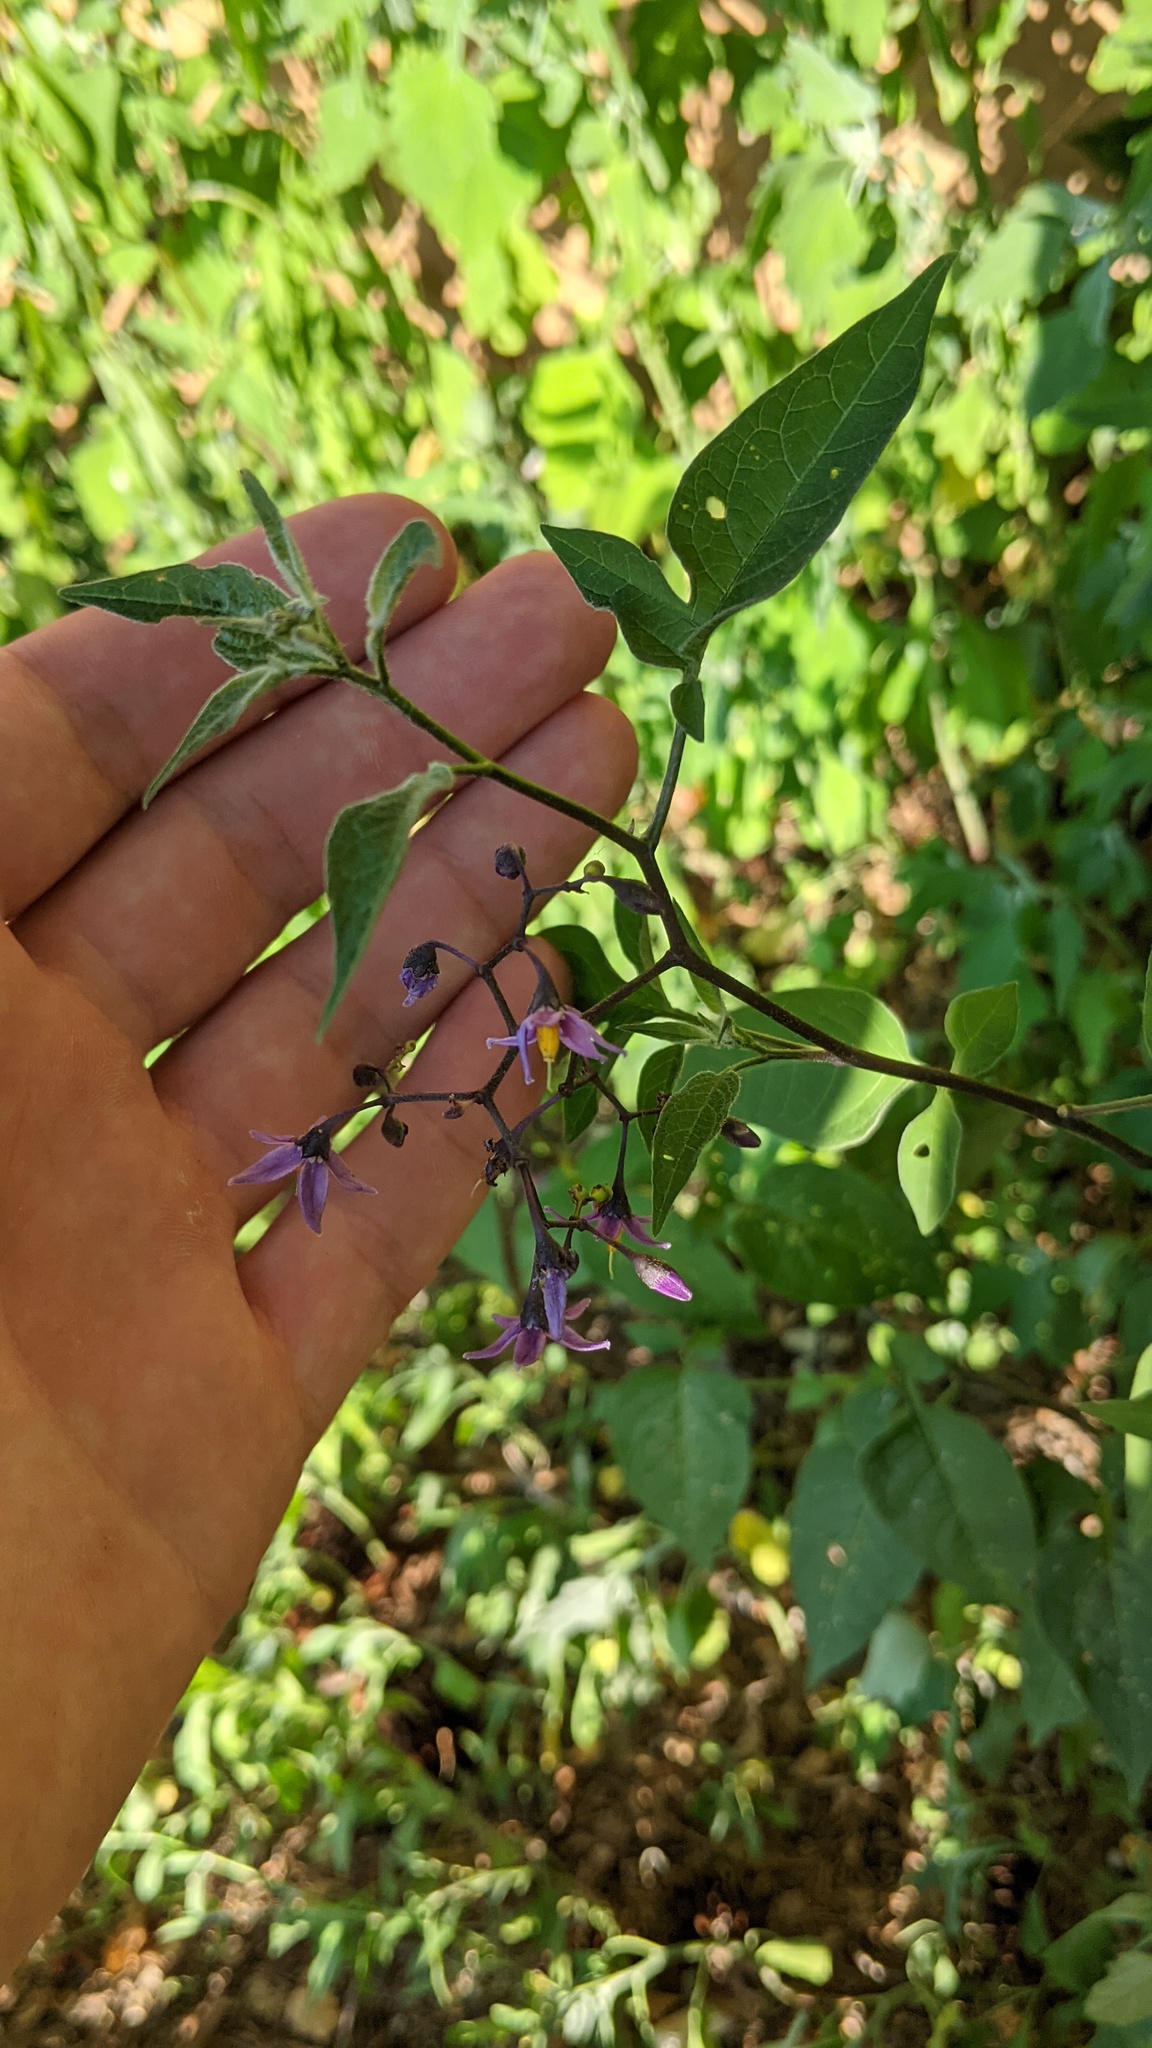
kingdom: Plantae
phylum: Tracheophyta
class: Magnoliopsida
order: Solanales
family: Solanaceae
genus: Solanum
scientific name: Solanum dulcamara
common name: Climbing nightshade
